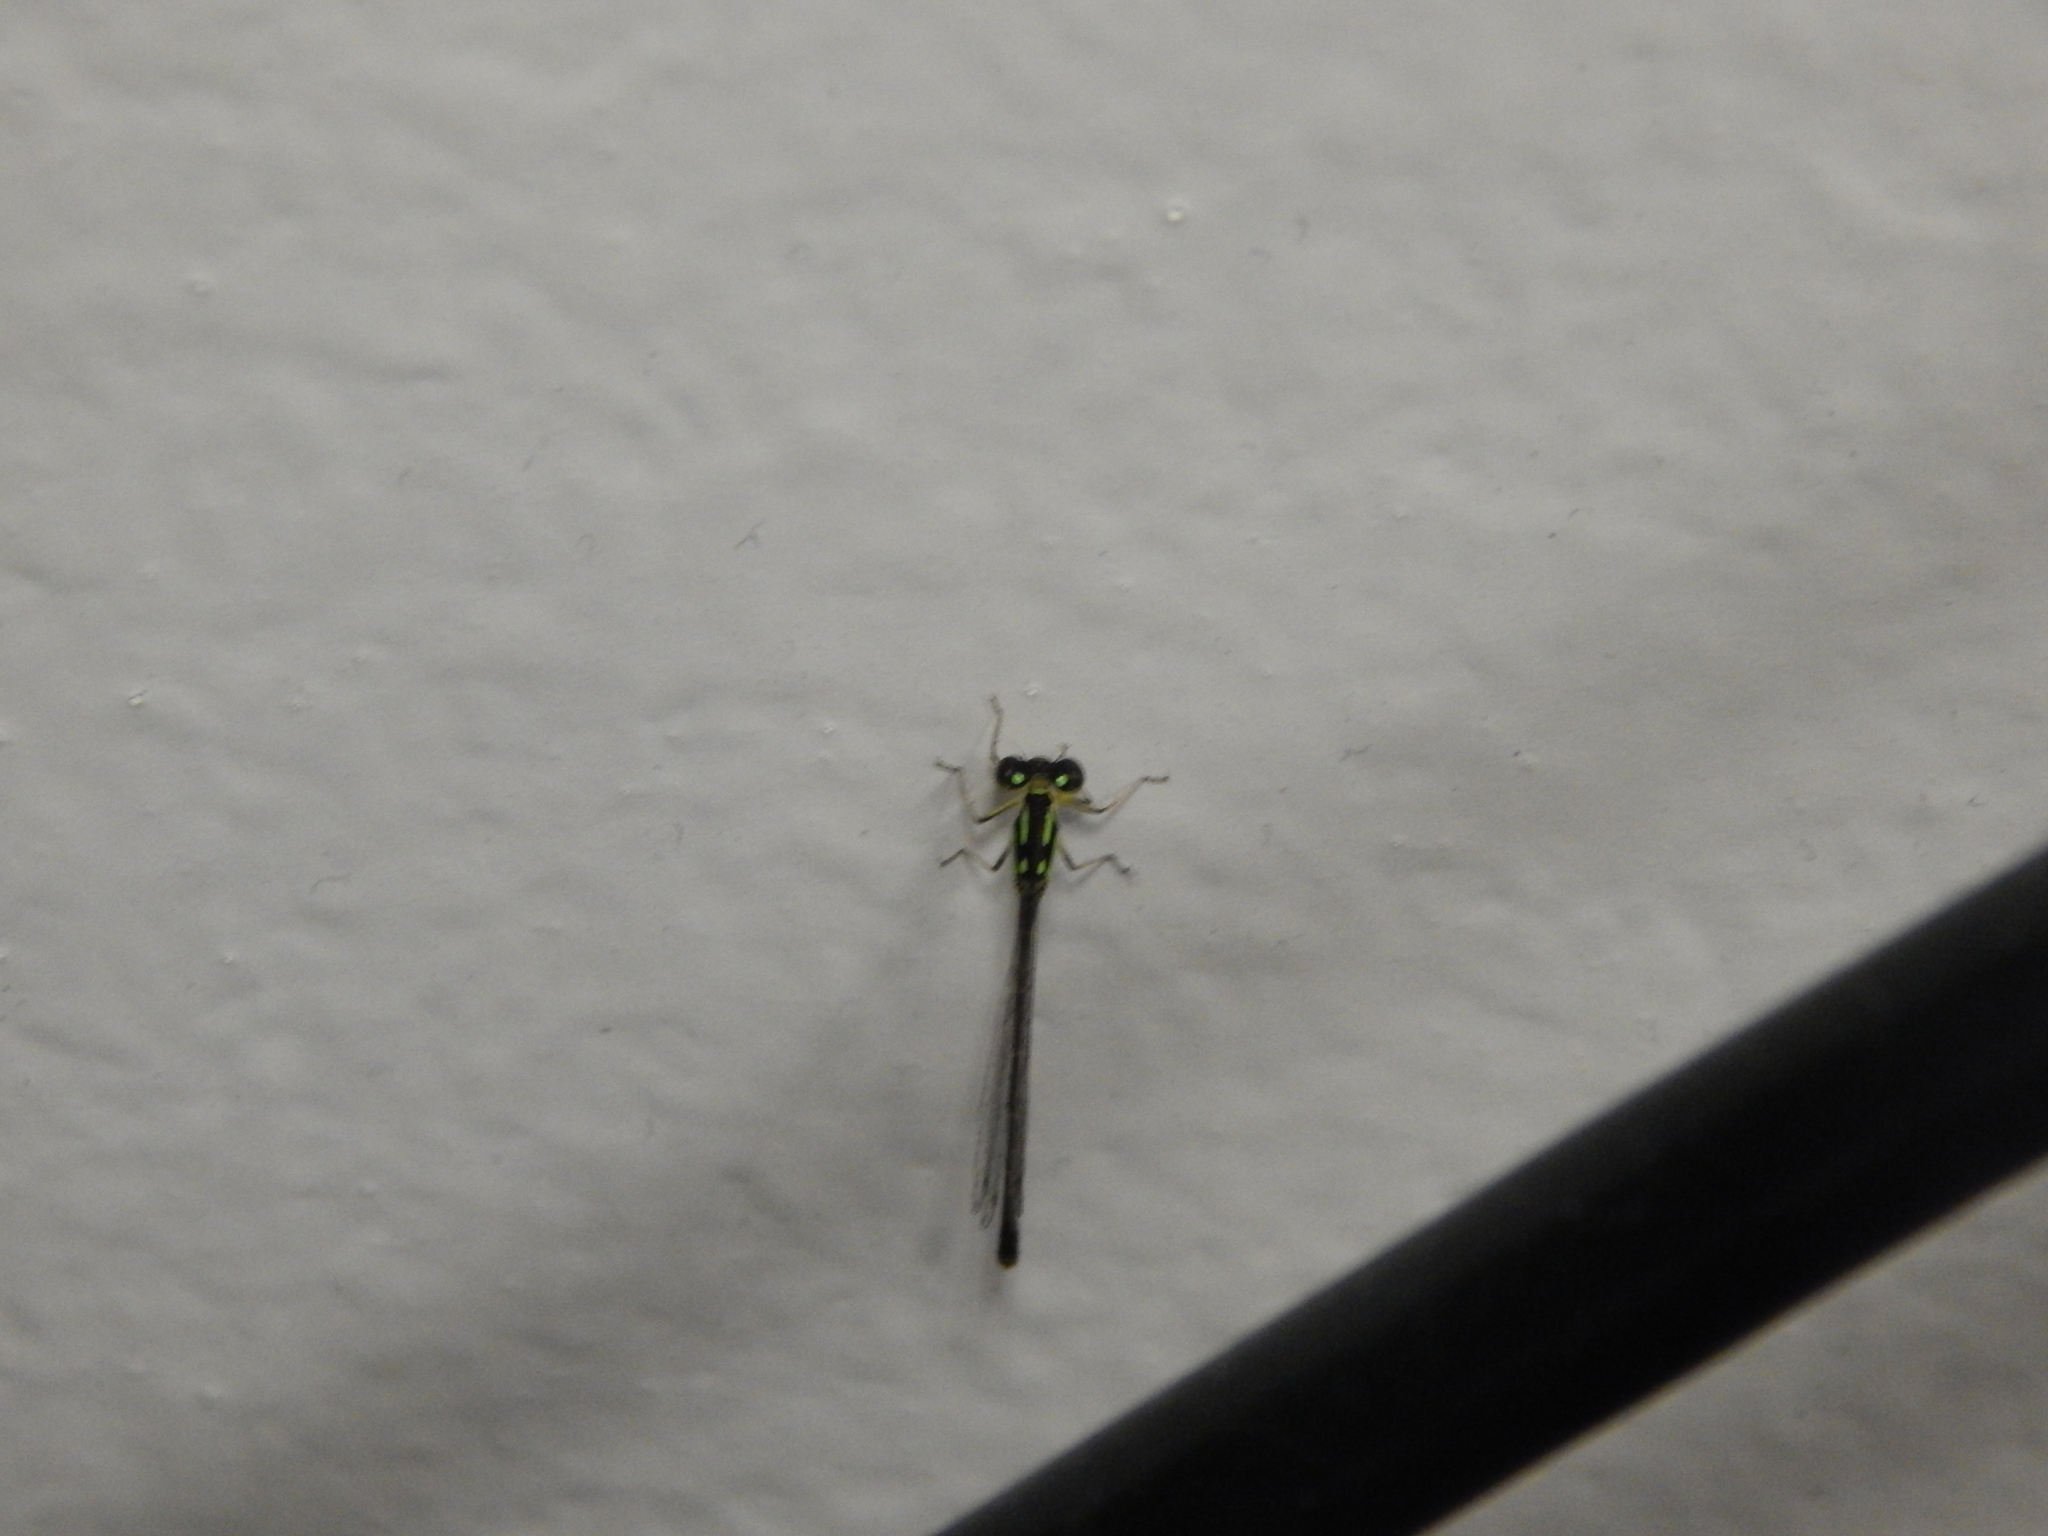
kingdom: Animalia
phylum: Arthropoda
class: Insecta
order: Odonata
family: Coenagrionidae
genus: Ischnura
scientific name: Ischnura posita
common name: Fragile forktail
